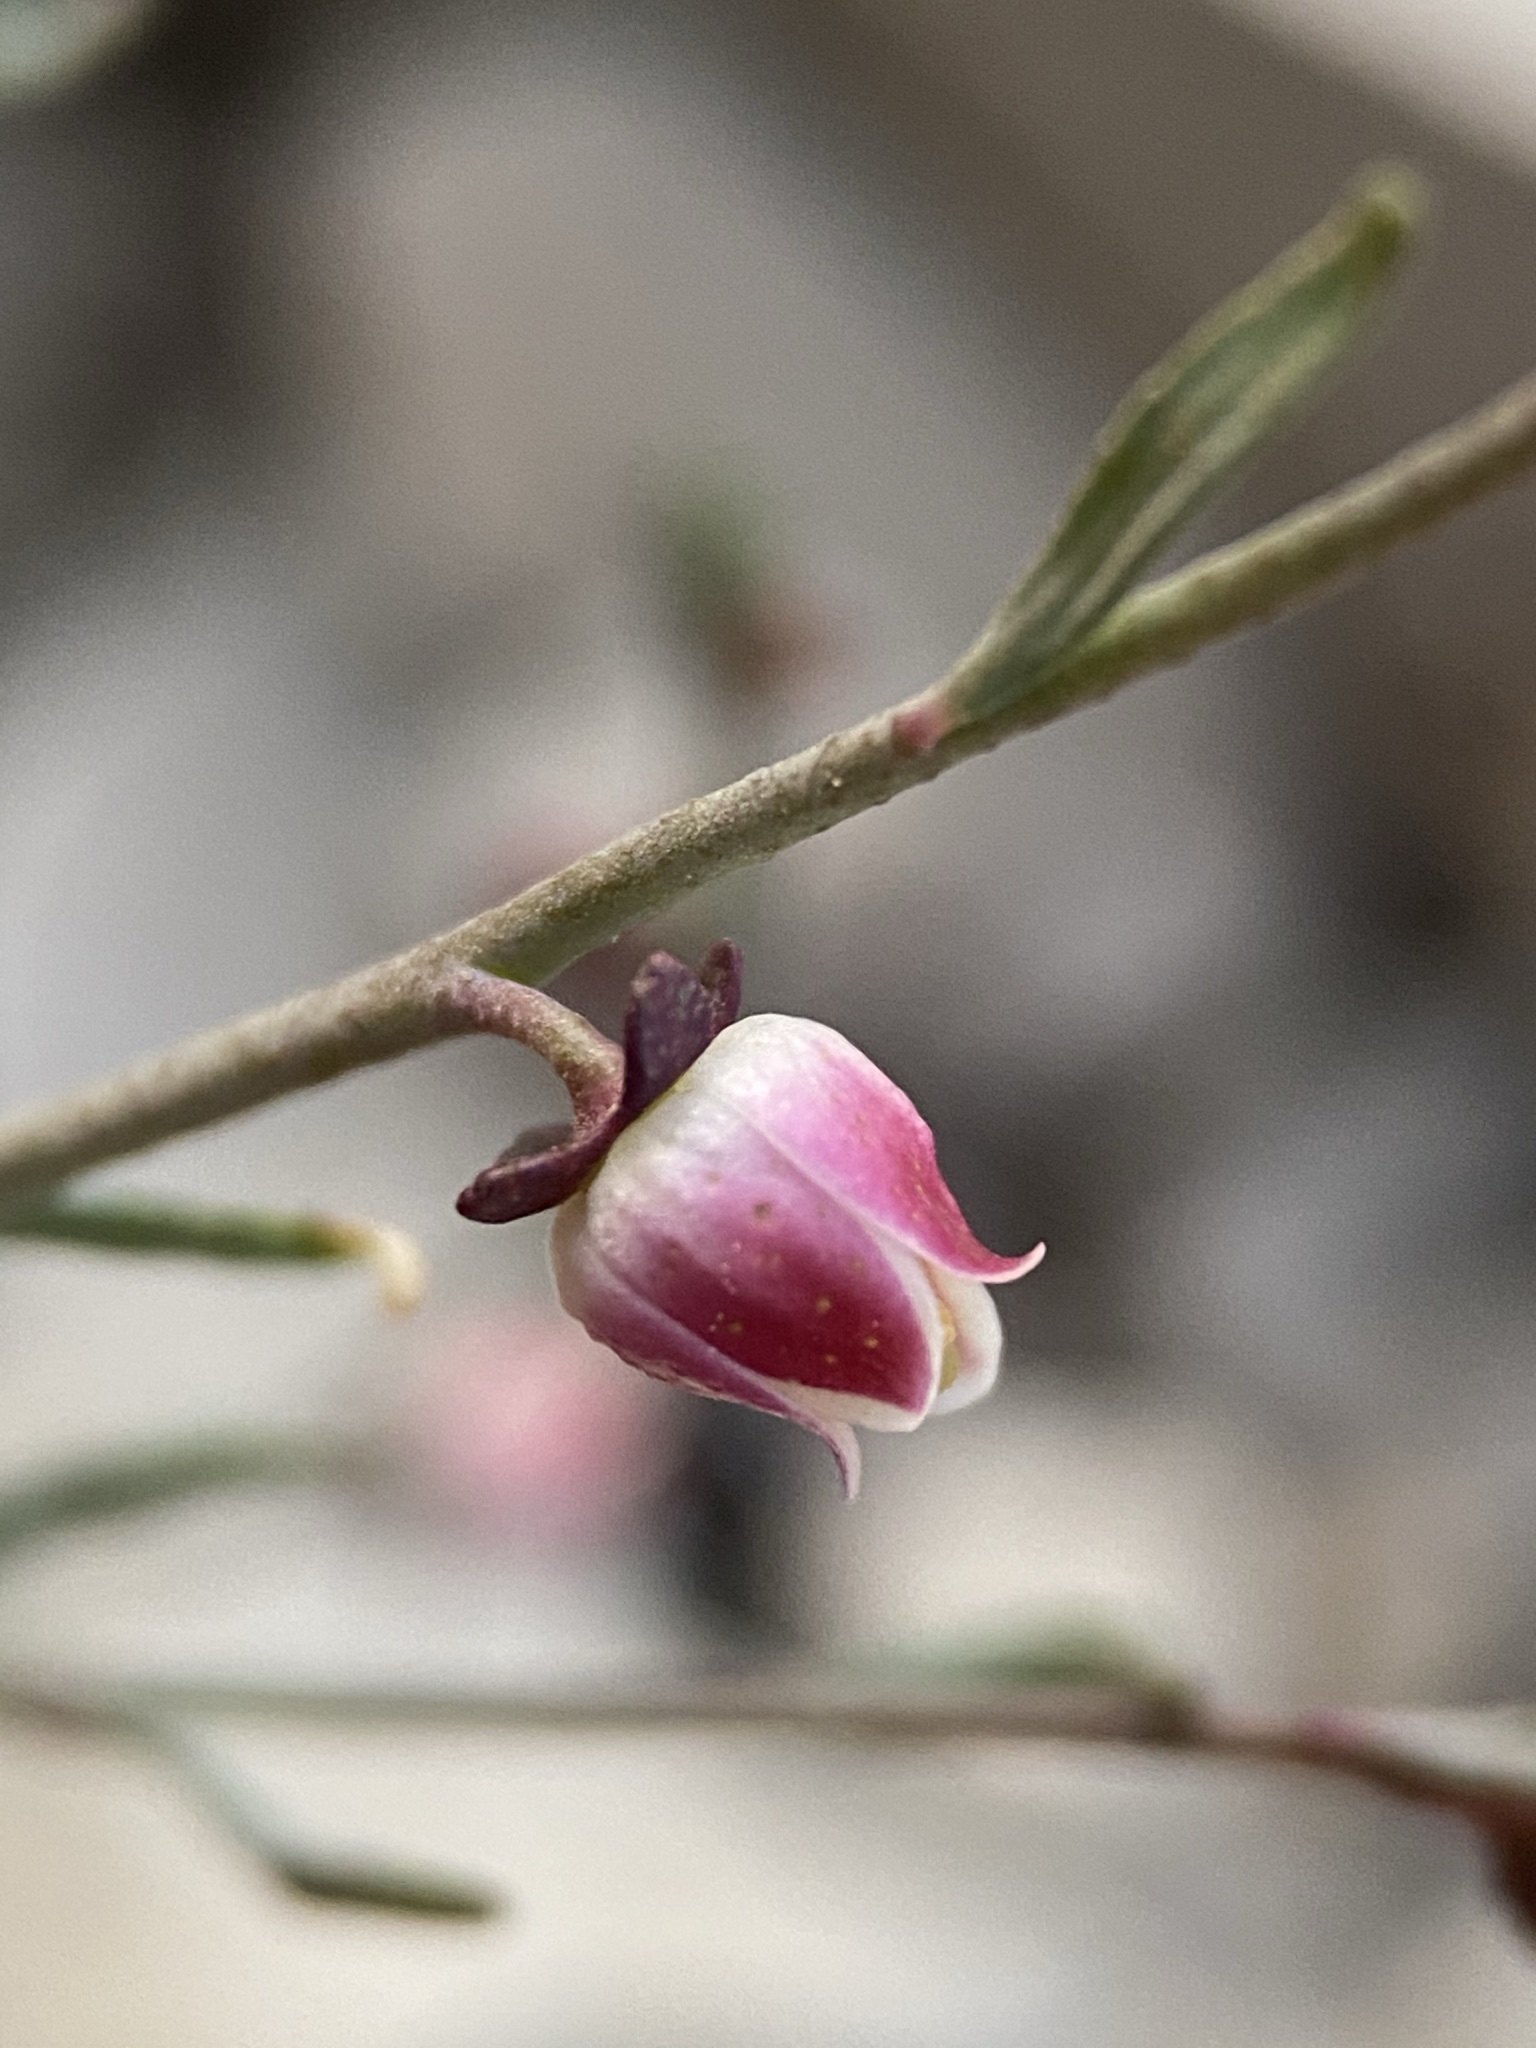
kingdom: Plantae
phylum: Tracheophyta
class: Magnoliopsida
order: Sapindales
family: Rutaceae
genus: Thamnosma
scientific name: Thamnosma texana
